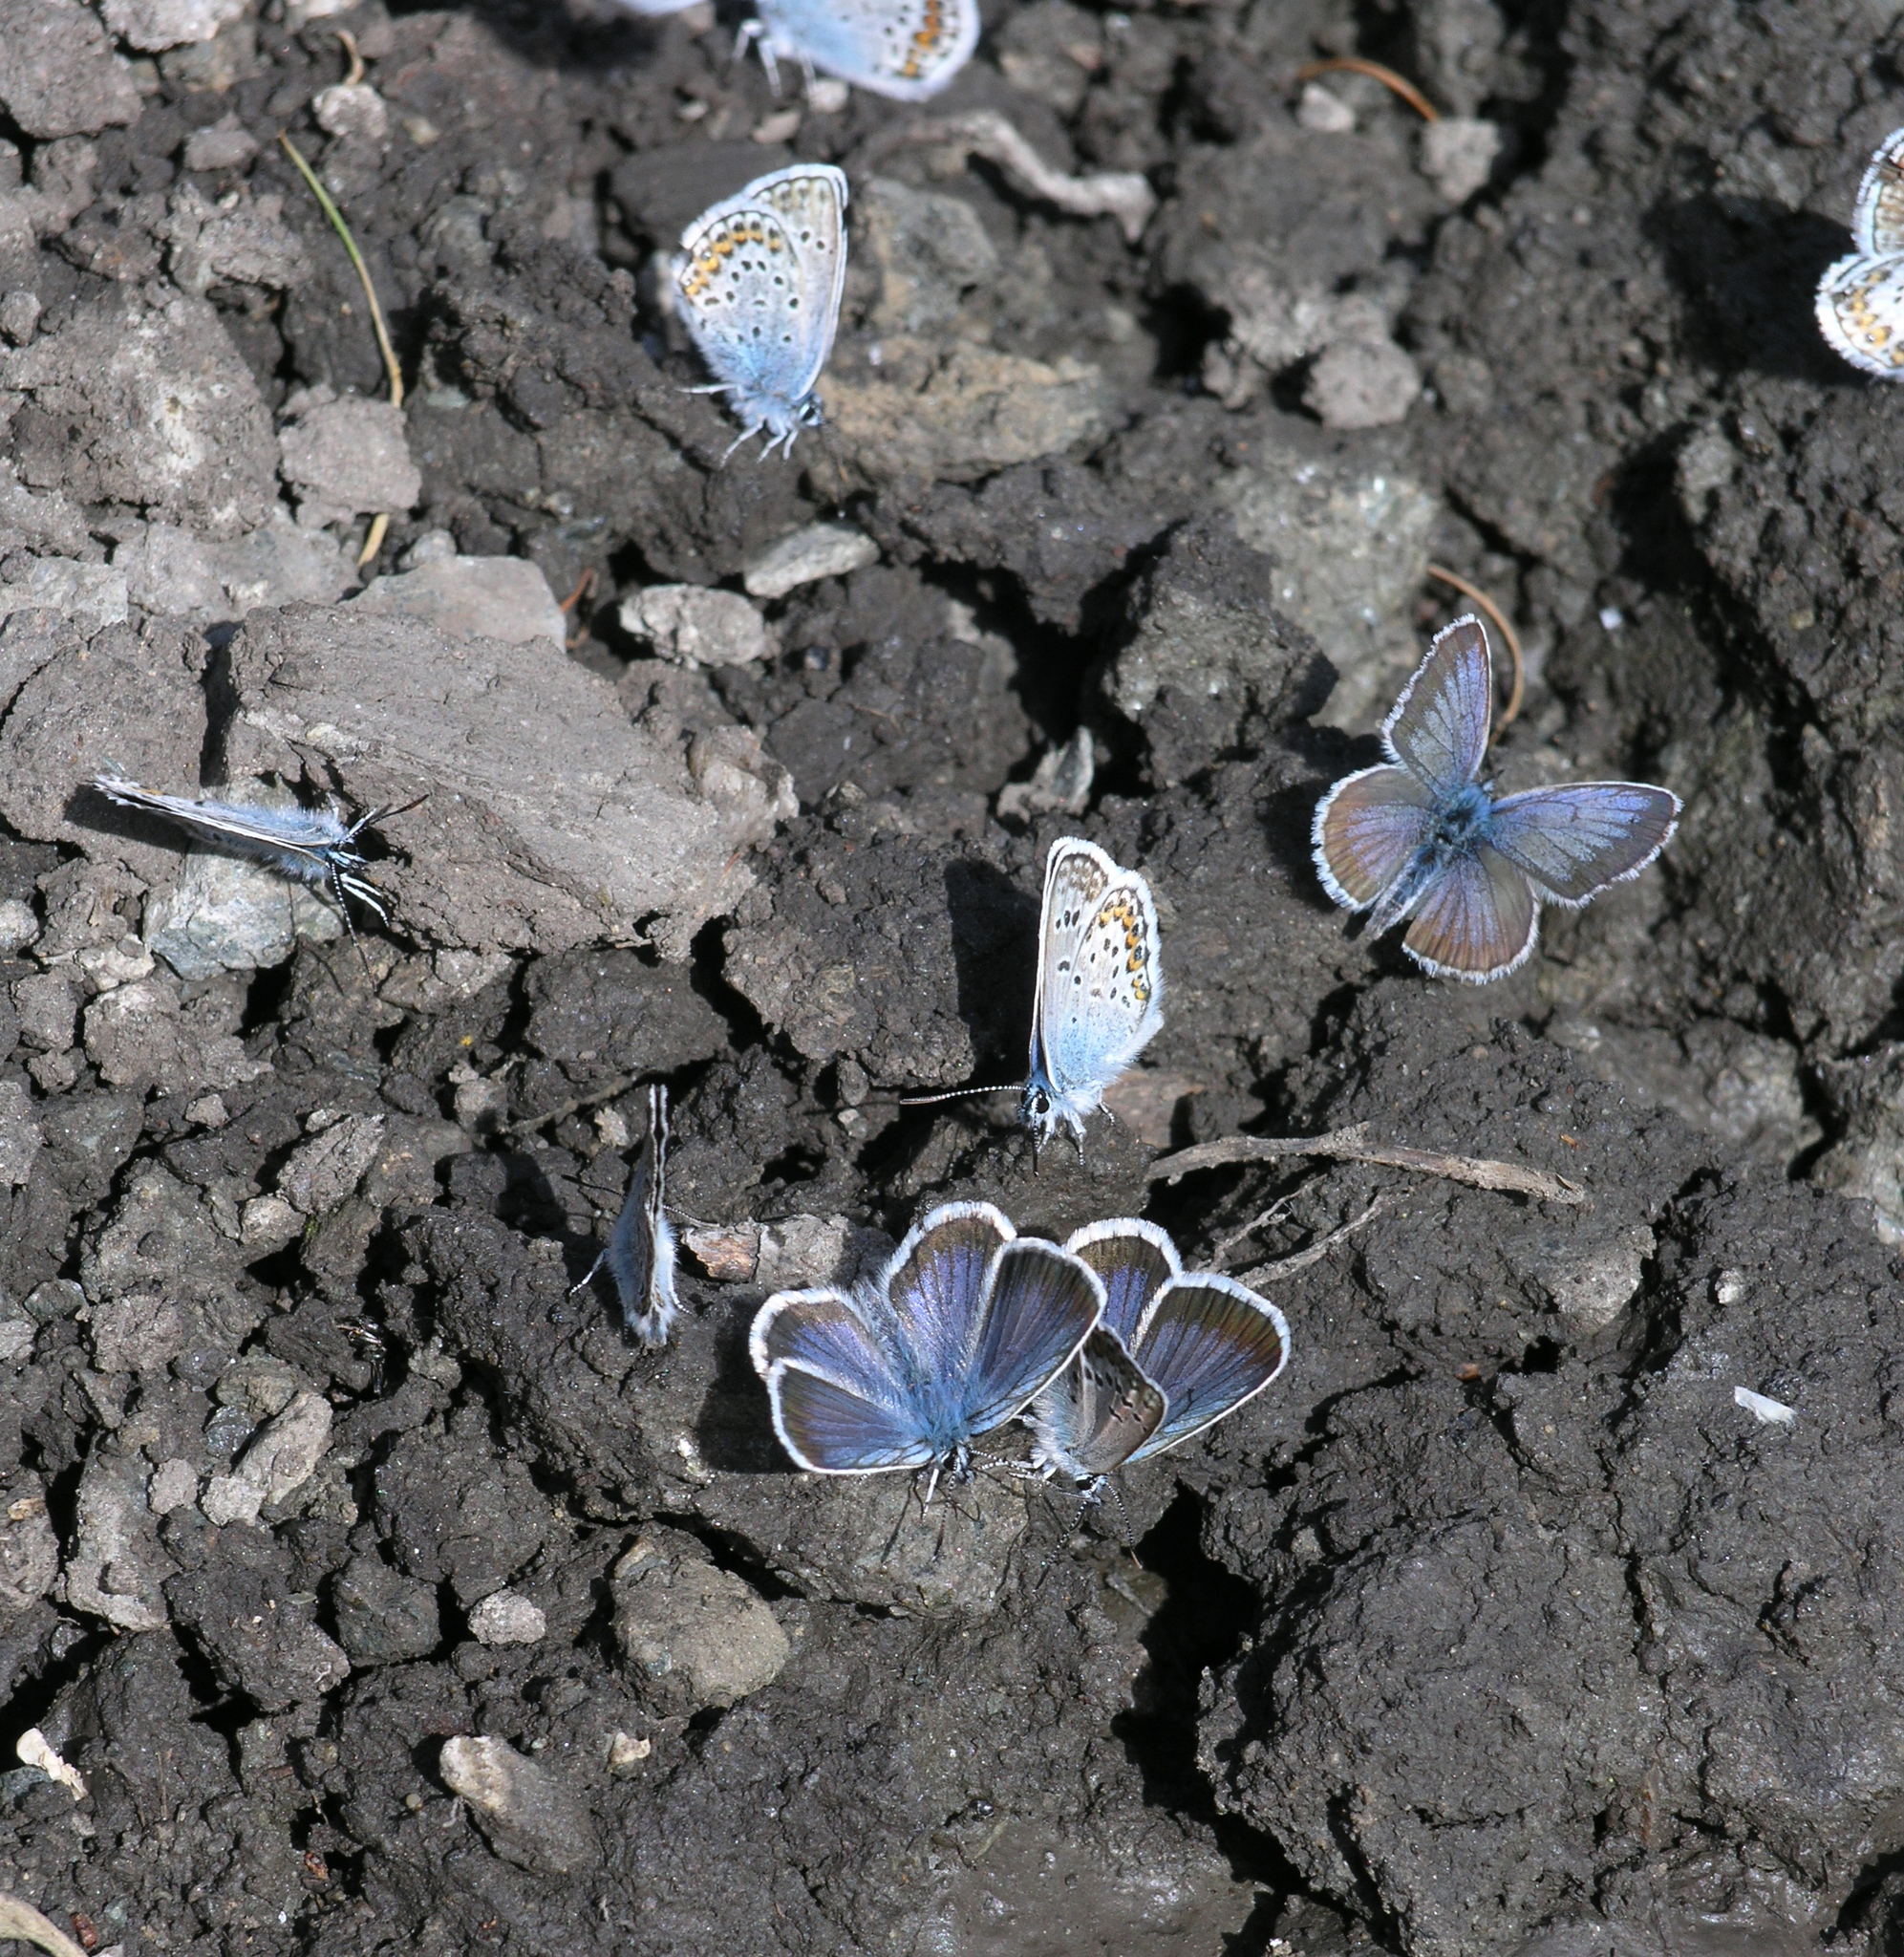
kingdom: Animalia
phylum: Arthropoda
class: Insecta
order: Lepidoptera
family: Lycaenidae
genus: Plebejus
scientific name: Plebejus argus
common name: Silver-studded blue
